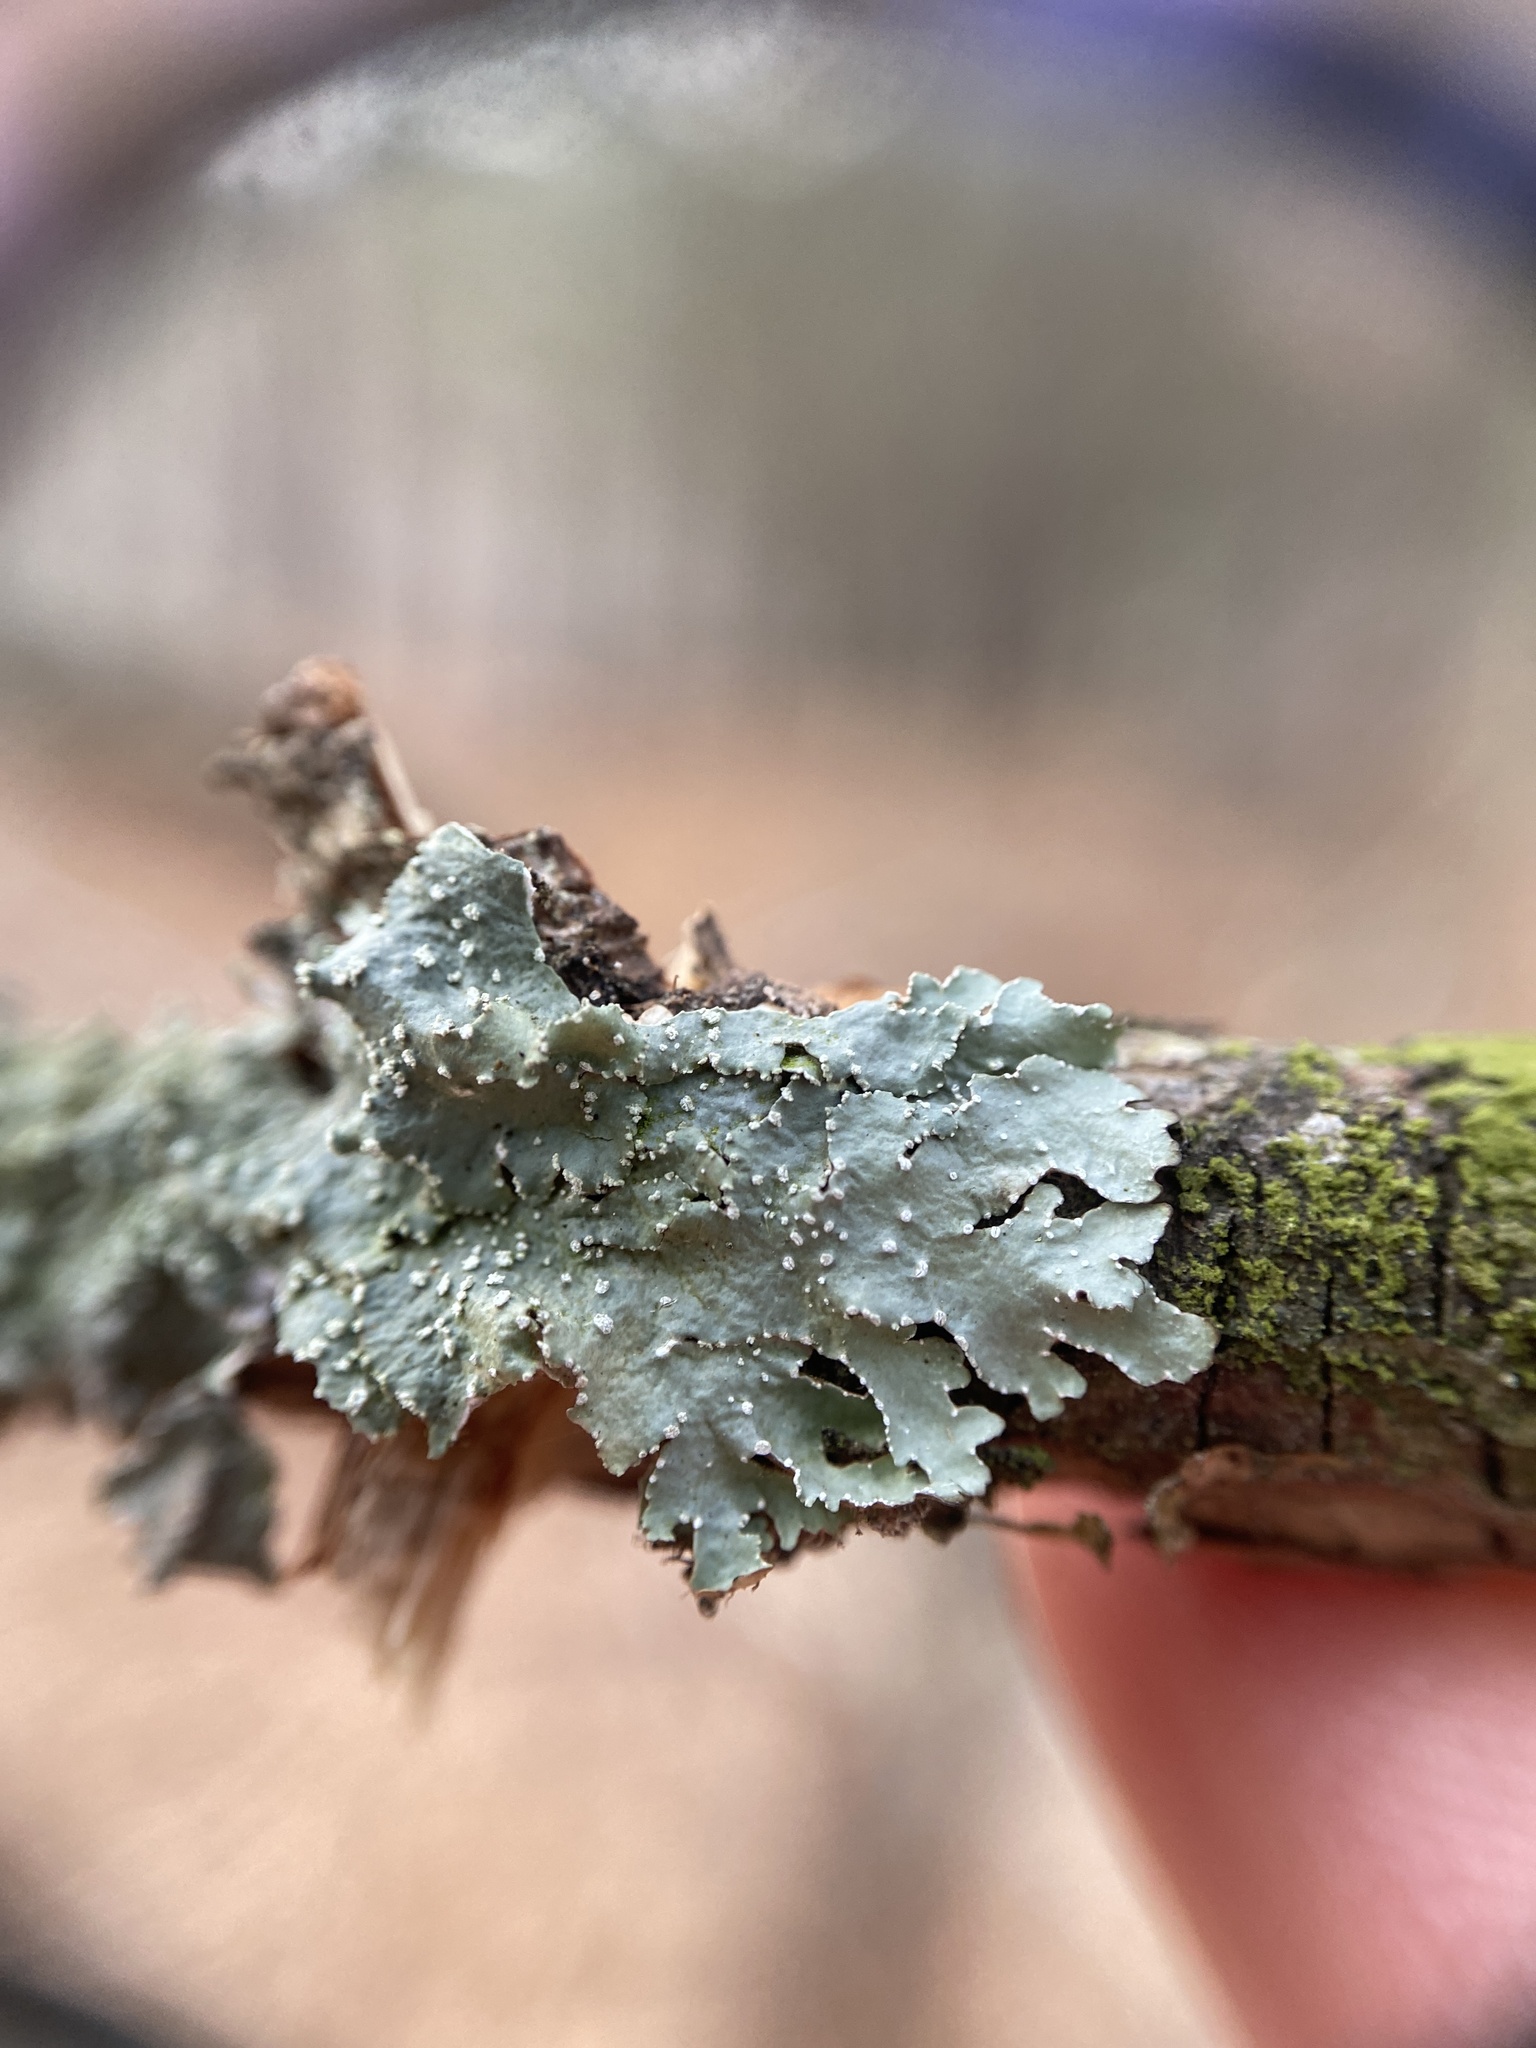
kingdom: Fungi
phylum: Ascomycota
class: Lecanoromycetes
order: Lecanorales
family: Parmeliaceae
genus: Punctelia
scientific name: Punctelia caseana
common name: Moondust speckled lichen
